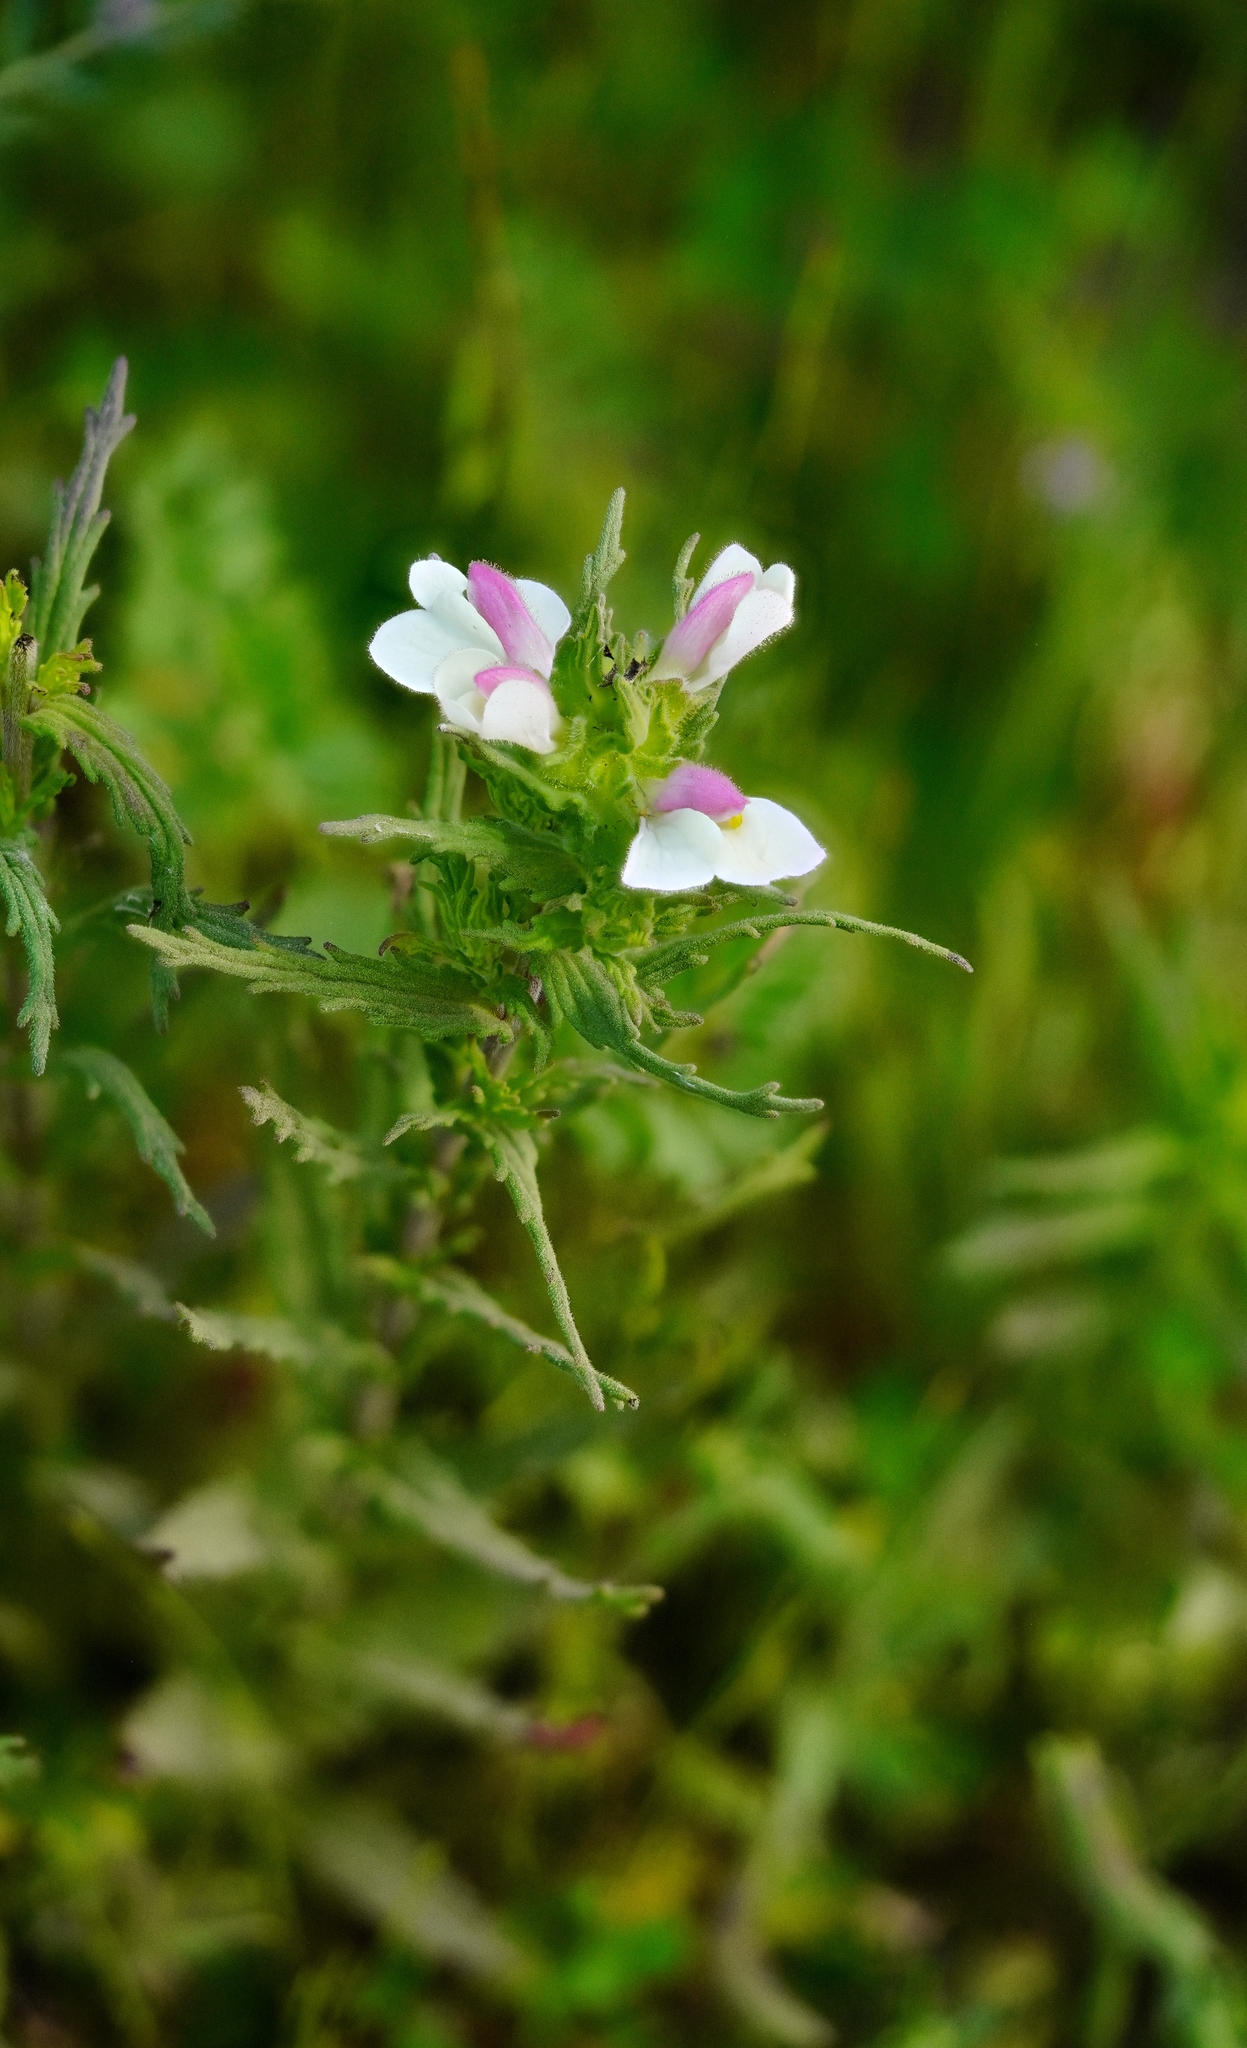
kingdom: Plantae
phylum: Tracheophyta
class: Magnoliopsida
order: Lamiales
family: Orobanchaceae
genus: Bellardia
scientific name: Bellardia trixago
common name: Mediterranean lineseed
